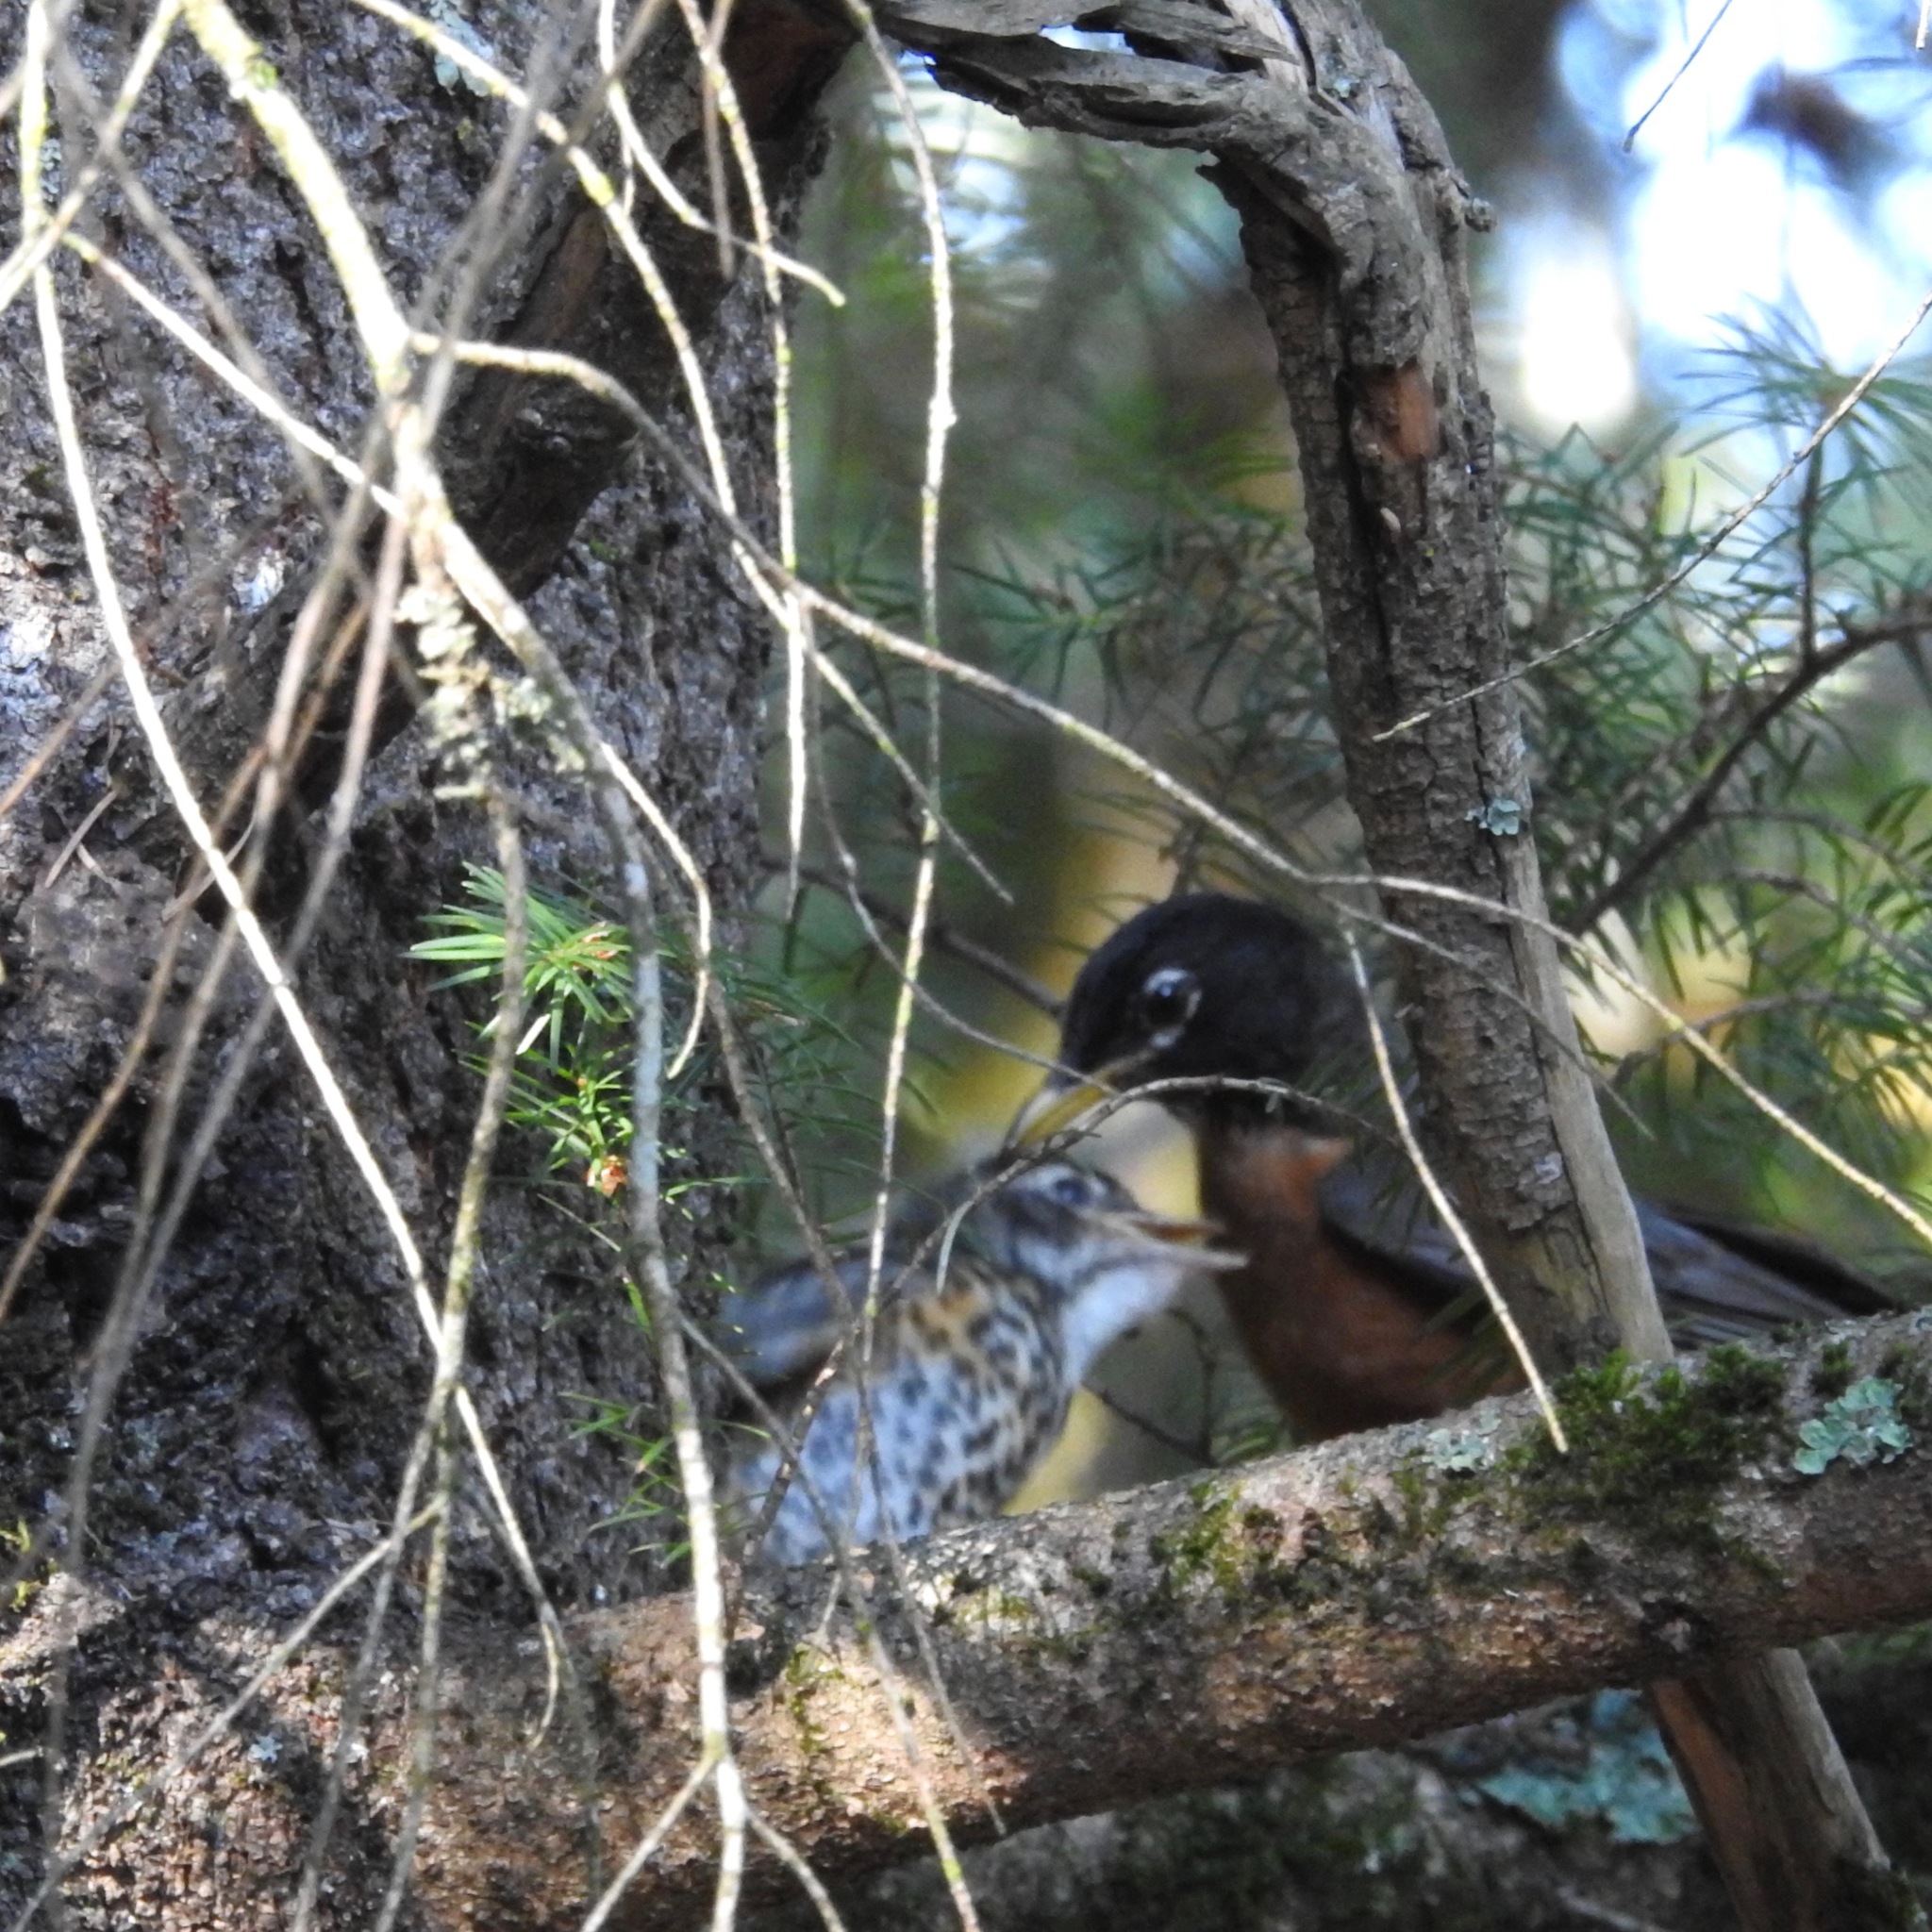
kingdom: Animalia
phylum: Chordata
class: Aves
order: Passeriformes
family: Turdidae
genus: Turdus
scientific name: Turdus migratorius
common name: American robin
